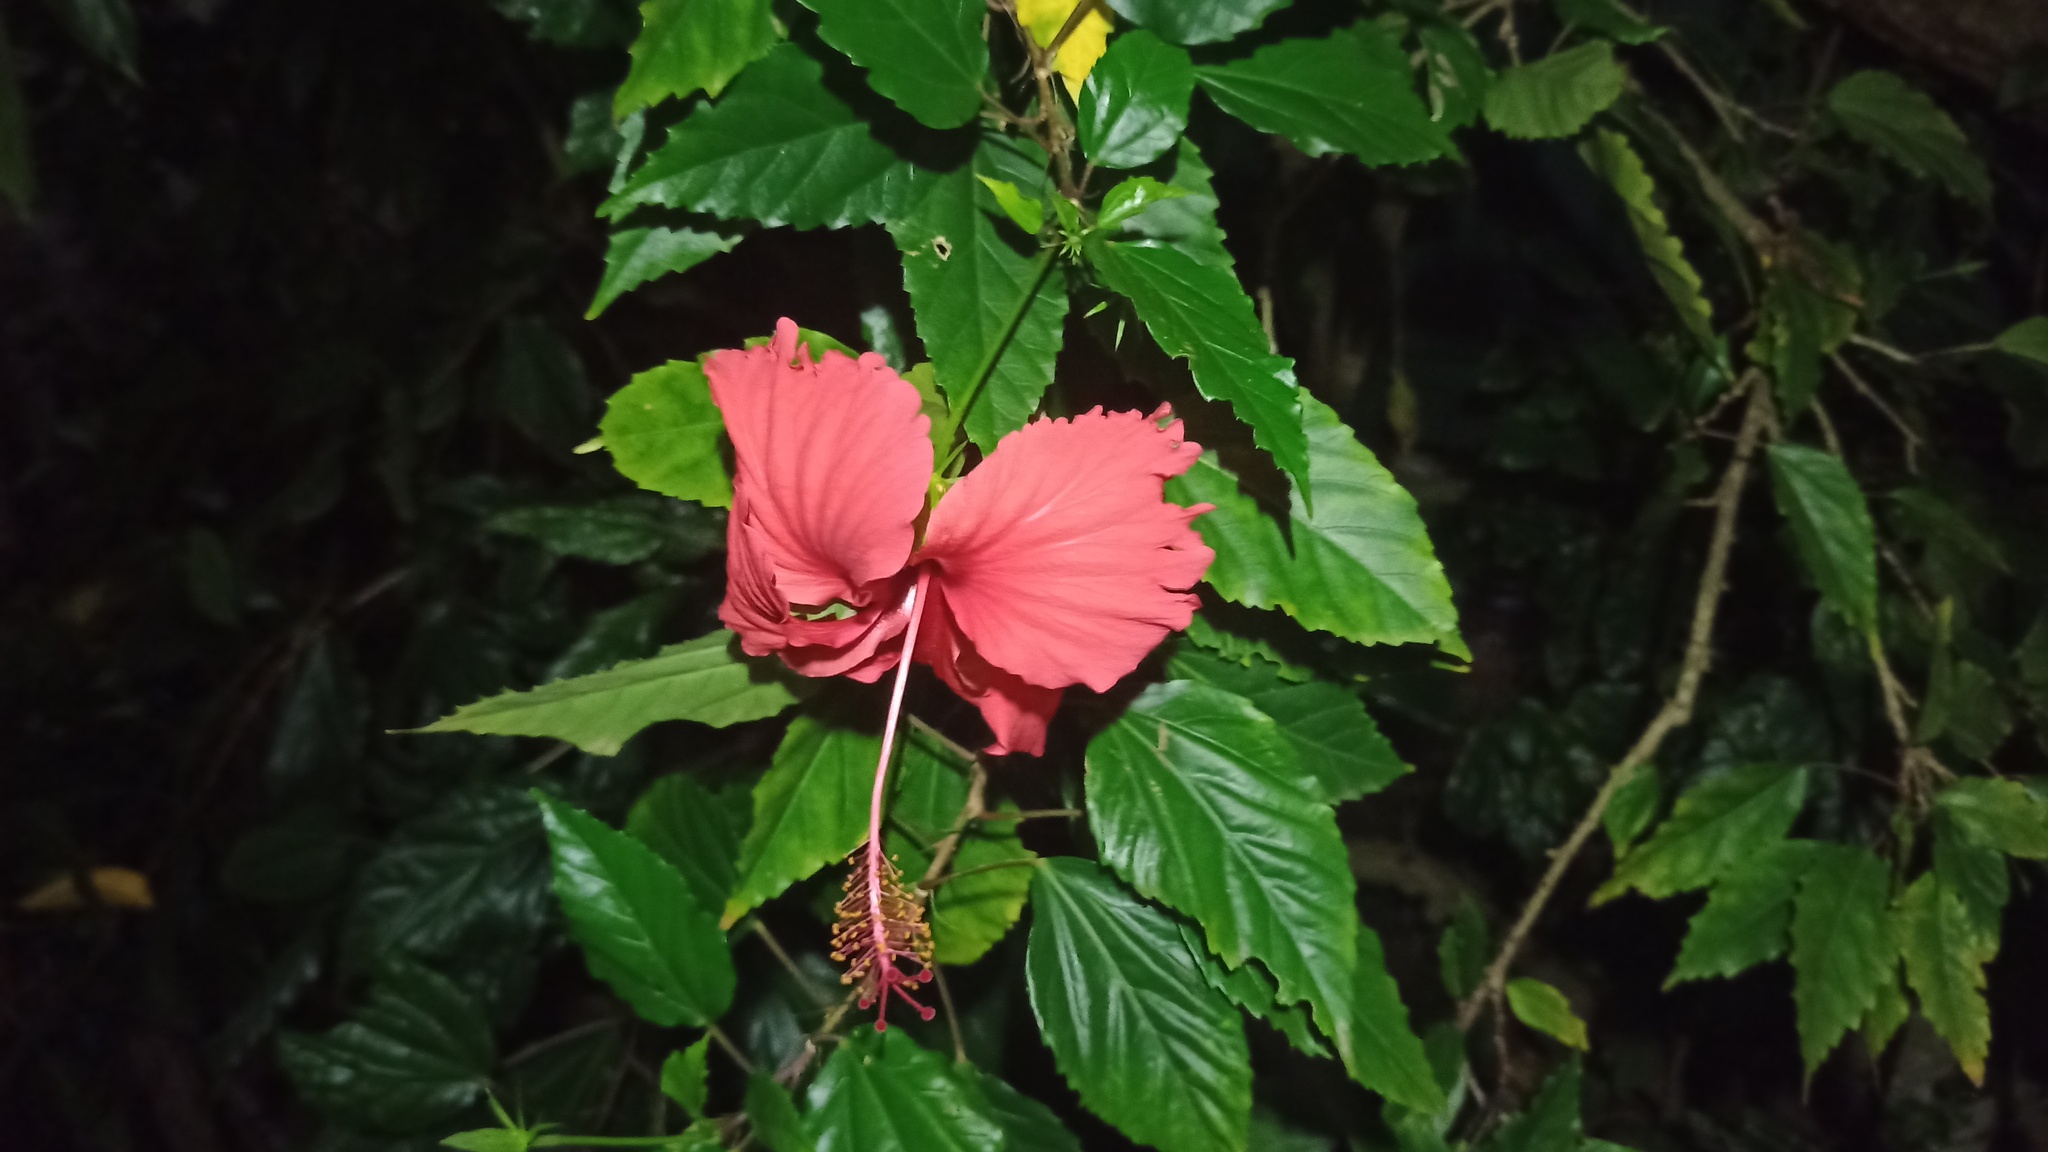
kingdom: Plantae
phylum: Tracheophyta
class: Magnoliopsida
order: Malvales
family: Malvaceae
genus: Hibiscus
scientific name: Hibiscus archeri
